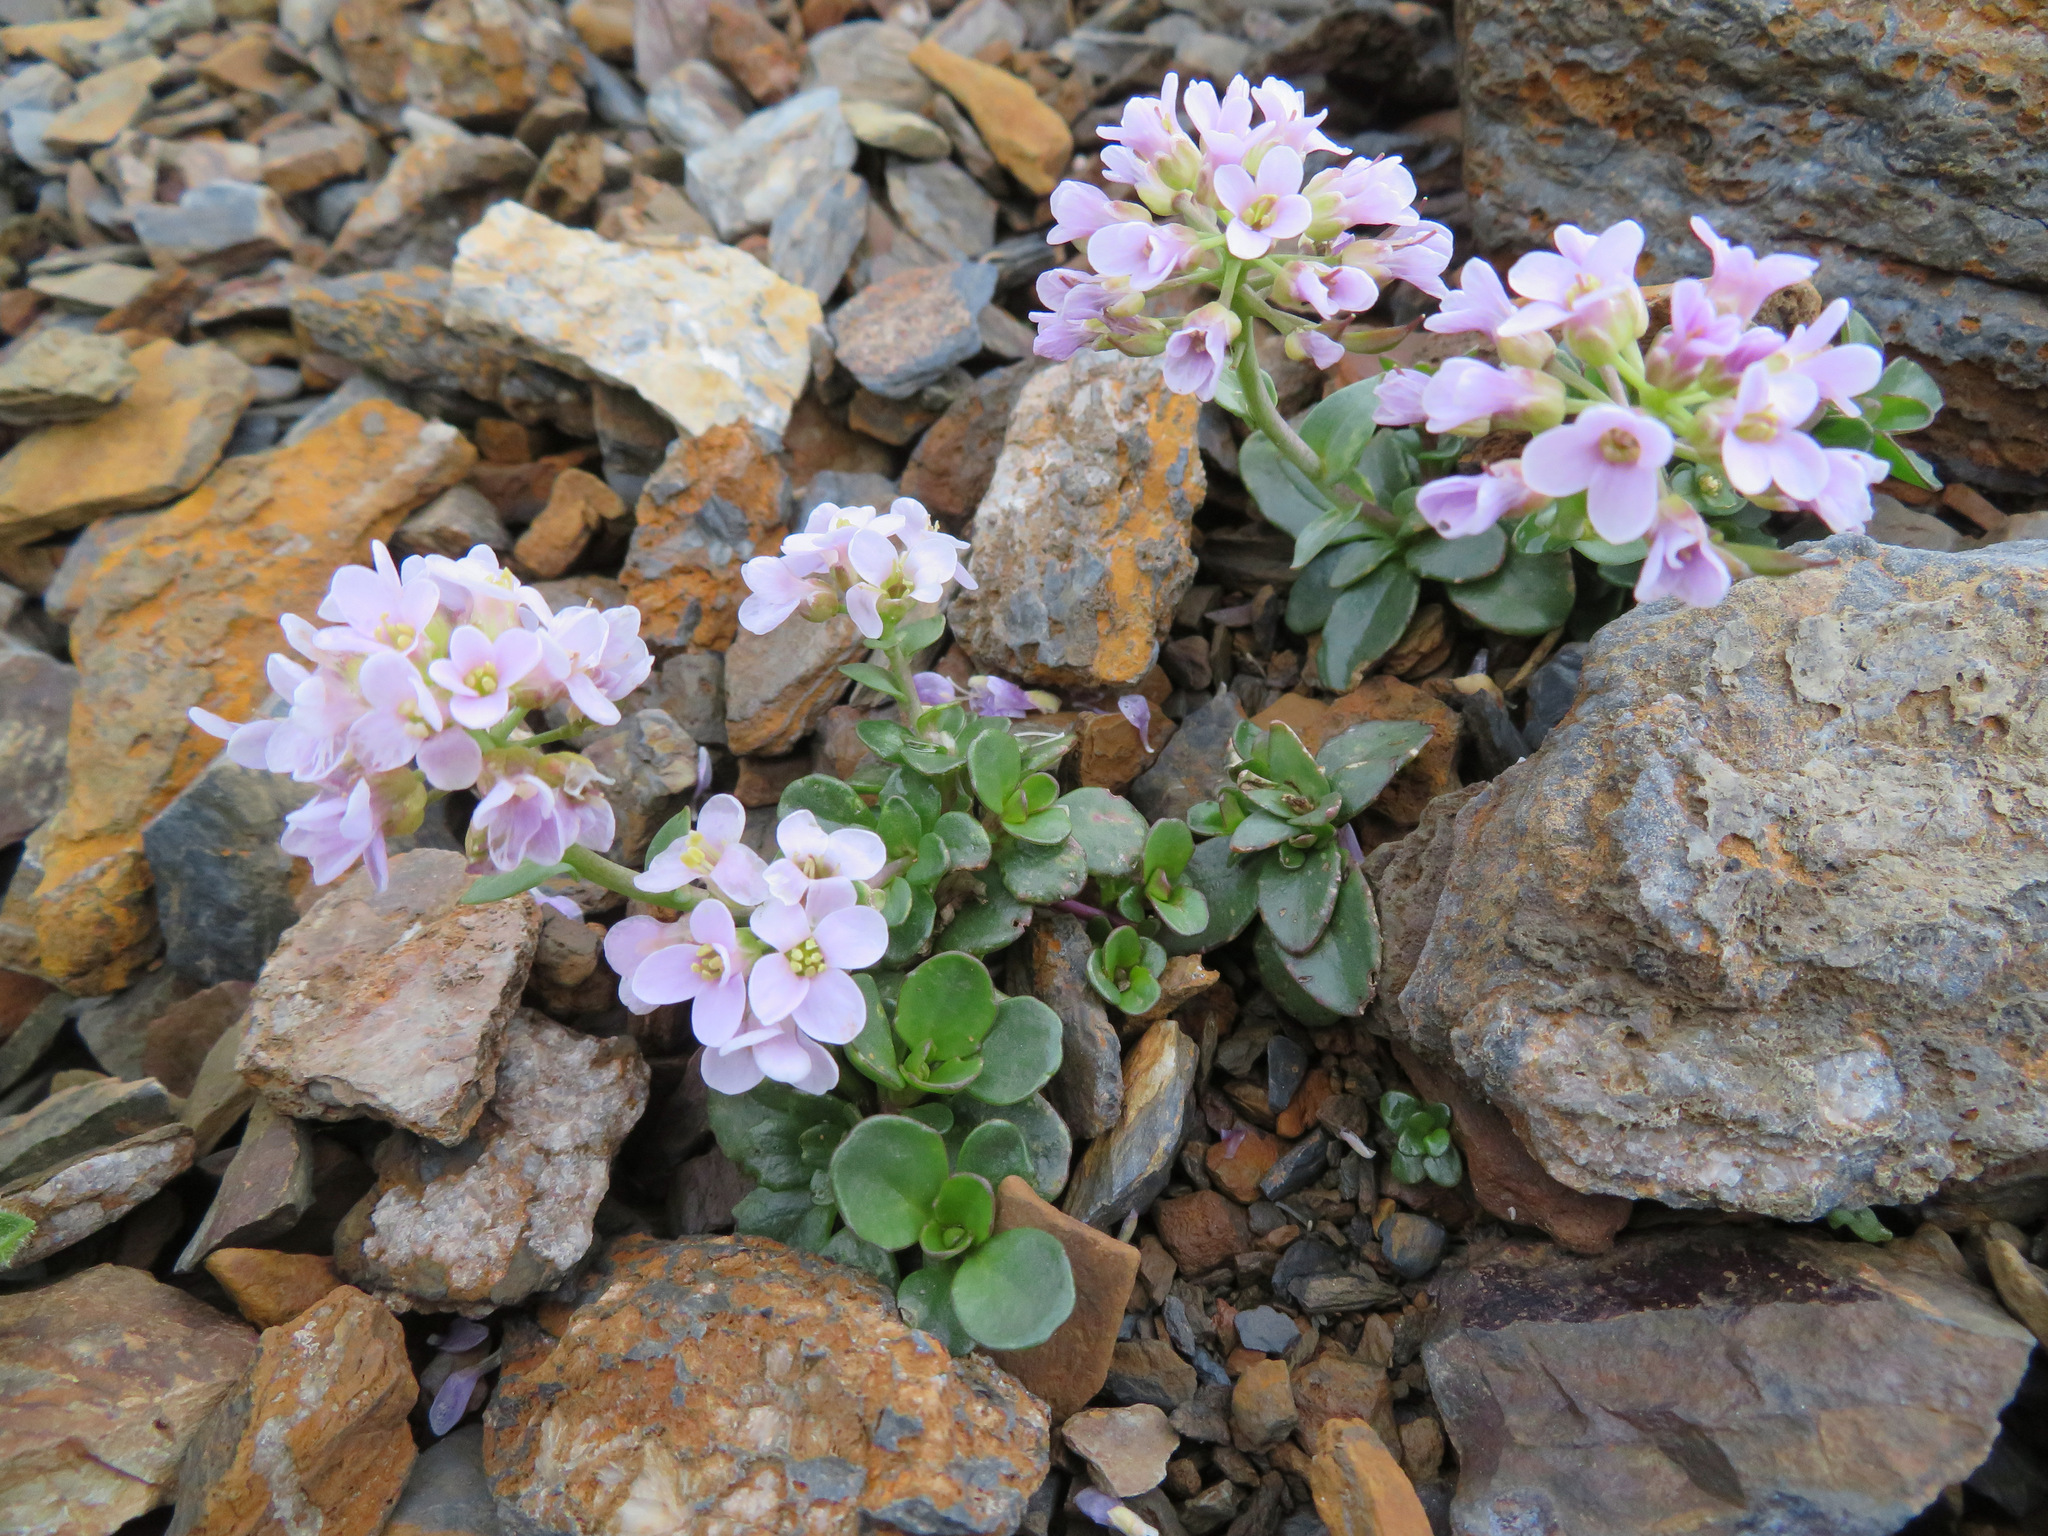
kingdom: Plantae
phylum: Tracheophyta
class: Magnoliopsida
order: Brassicales
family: Brassicaceae
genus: Noccaea
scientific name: Noccaea rotundifolia
